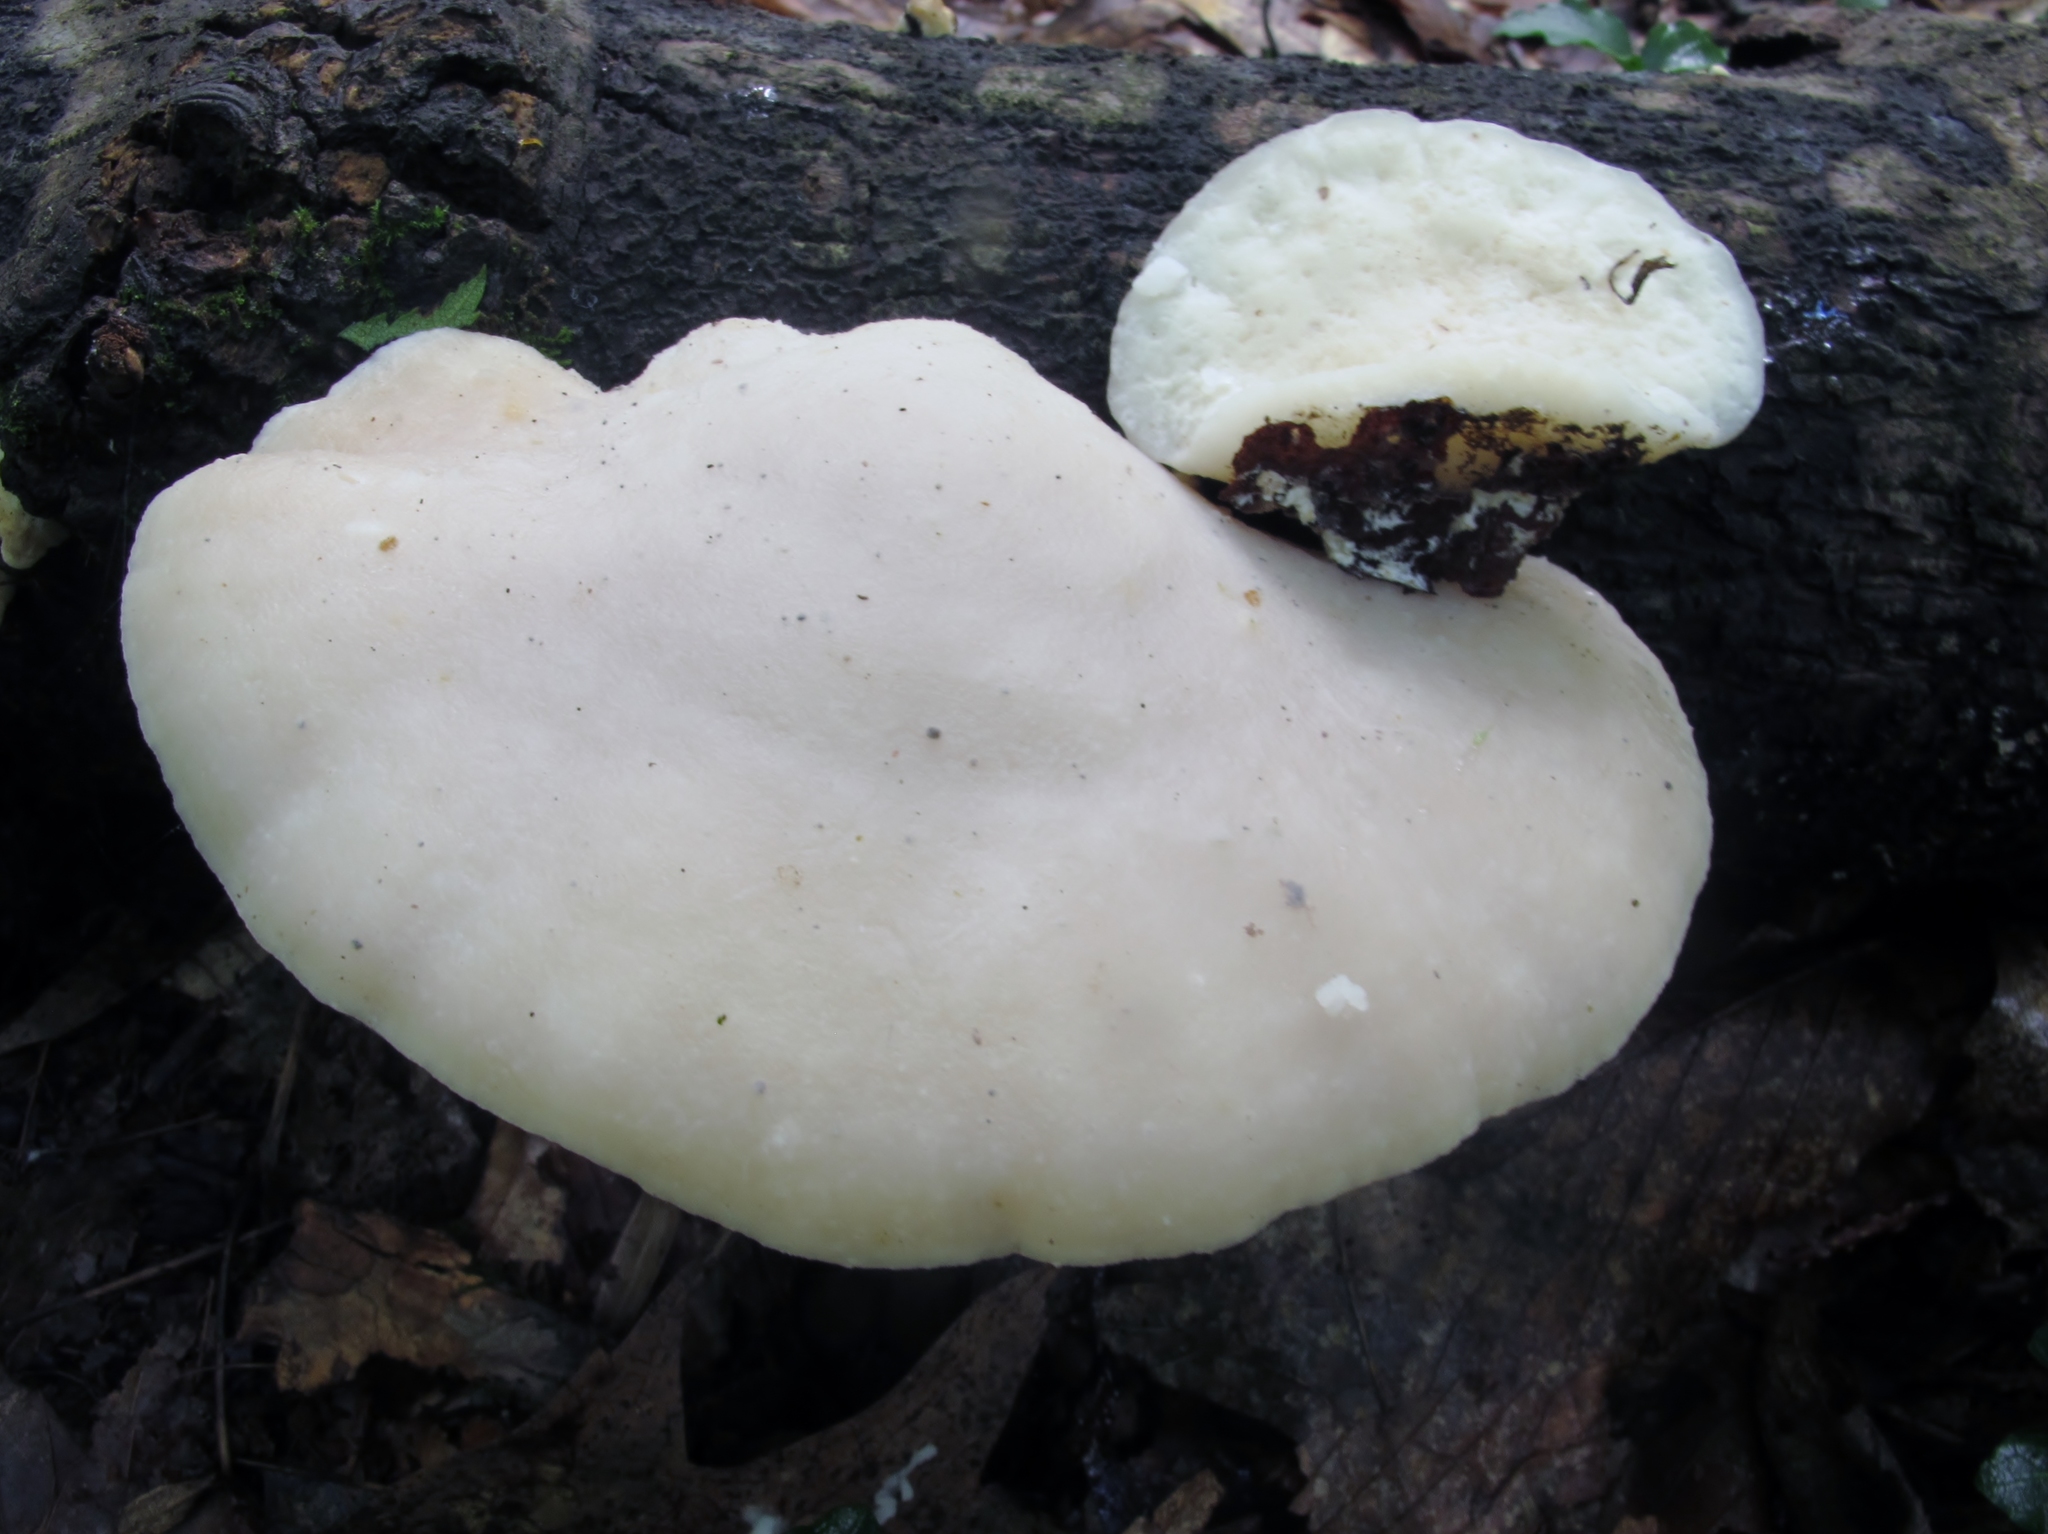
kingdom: Fungi
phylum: Basidiomycota
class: Agaricomycetes
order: Polyporales
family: Incrustoporiaceae
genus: Tyromyces
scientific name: Tyromyces chioneus
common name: White cheese polypore
